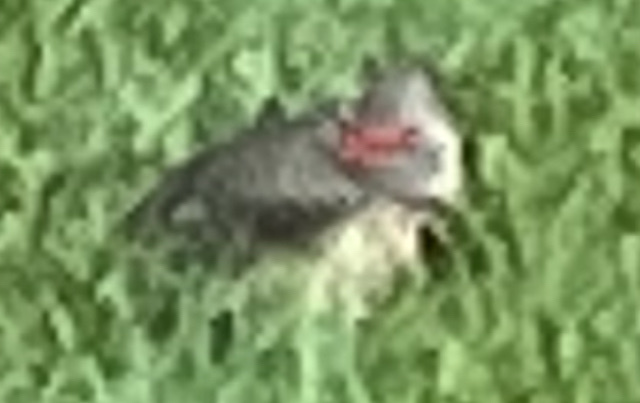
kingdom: Animalia
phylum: Chordata
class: Aves
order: Piciformes
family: Picidae
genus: Colaptes
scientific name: Colaptes auratus
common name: Northern flicker
